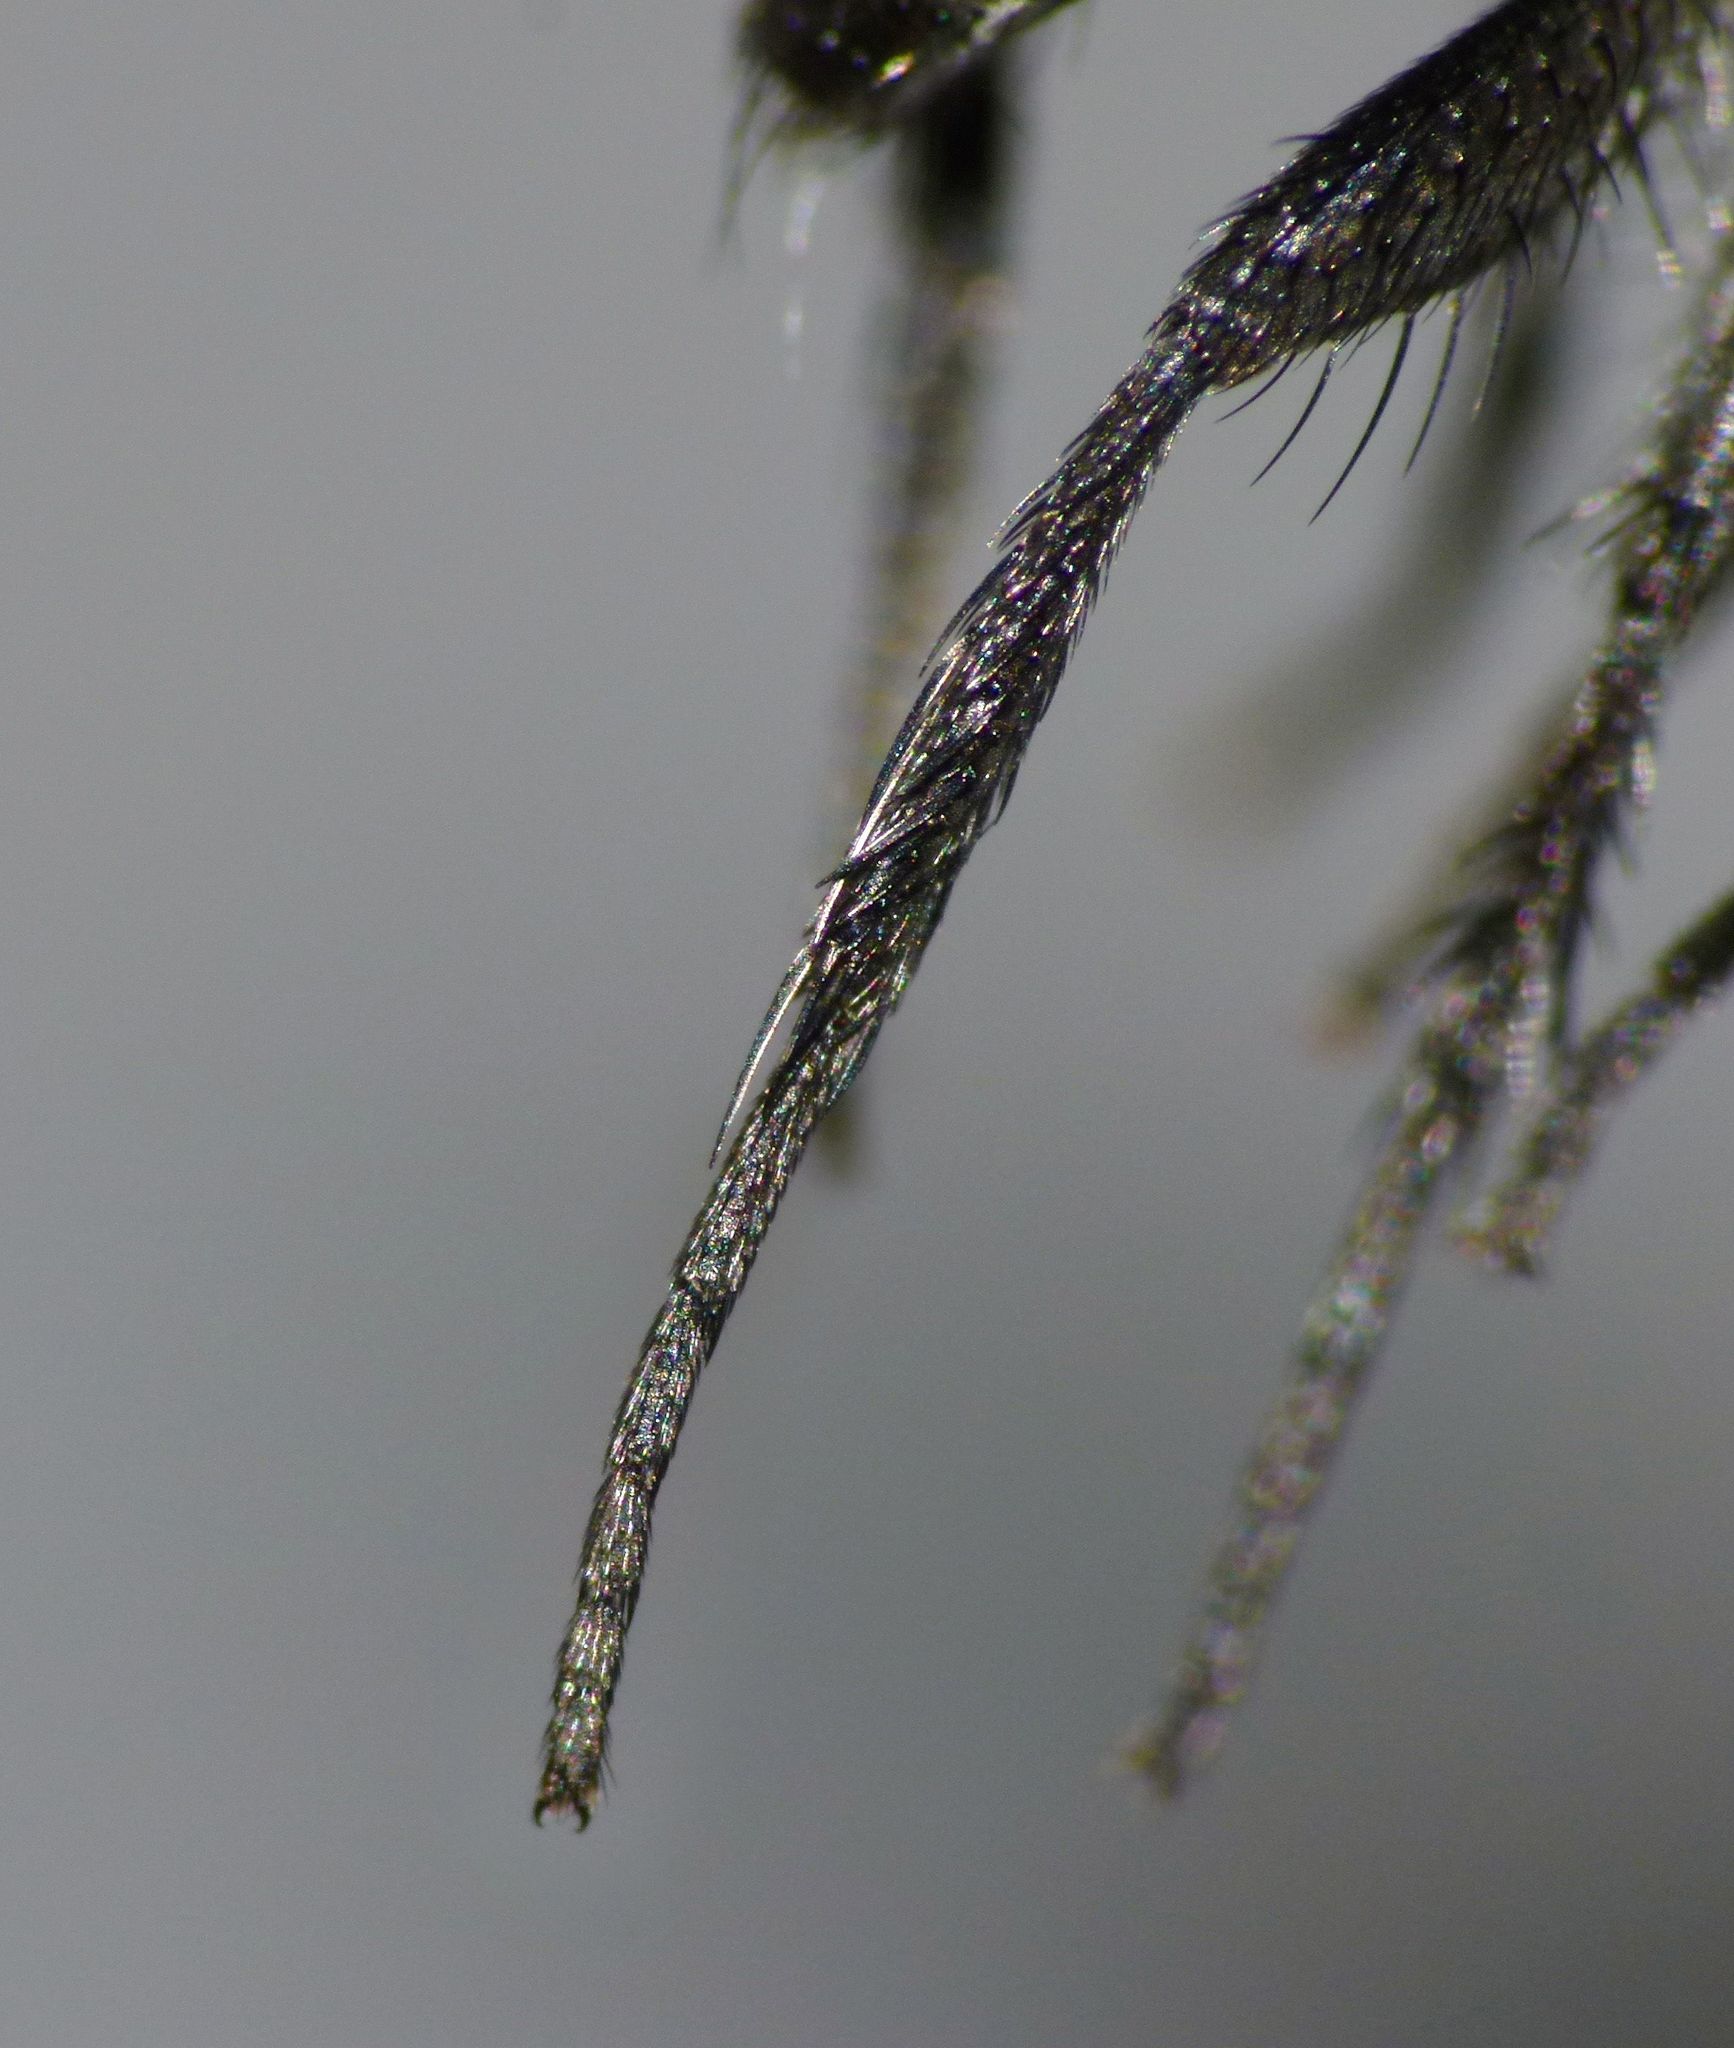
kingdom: Animalia
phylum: Arthropoda
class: Insecta
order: Diptera
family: Tachinidae
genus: Plagiomyia
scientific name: Plagiomyia longipes
